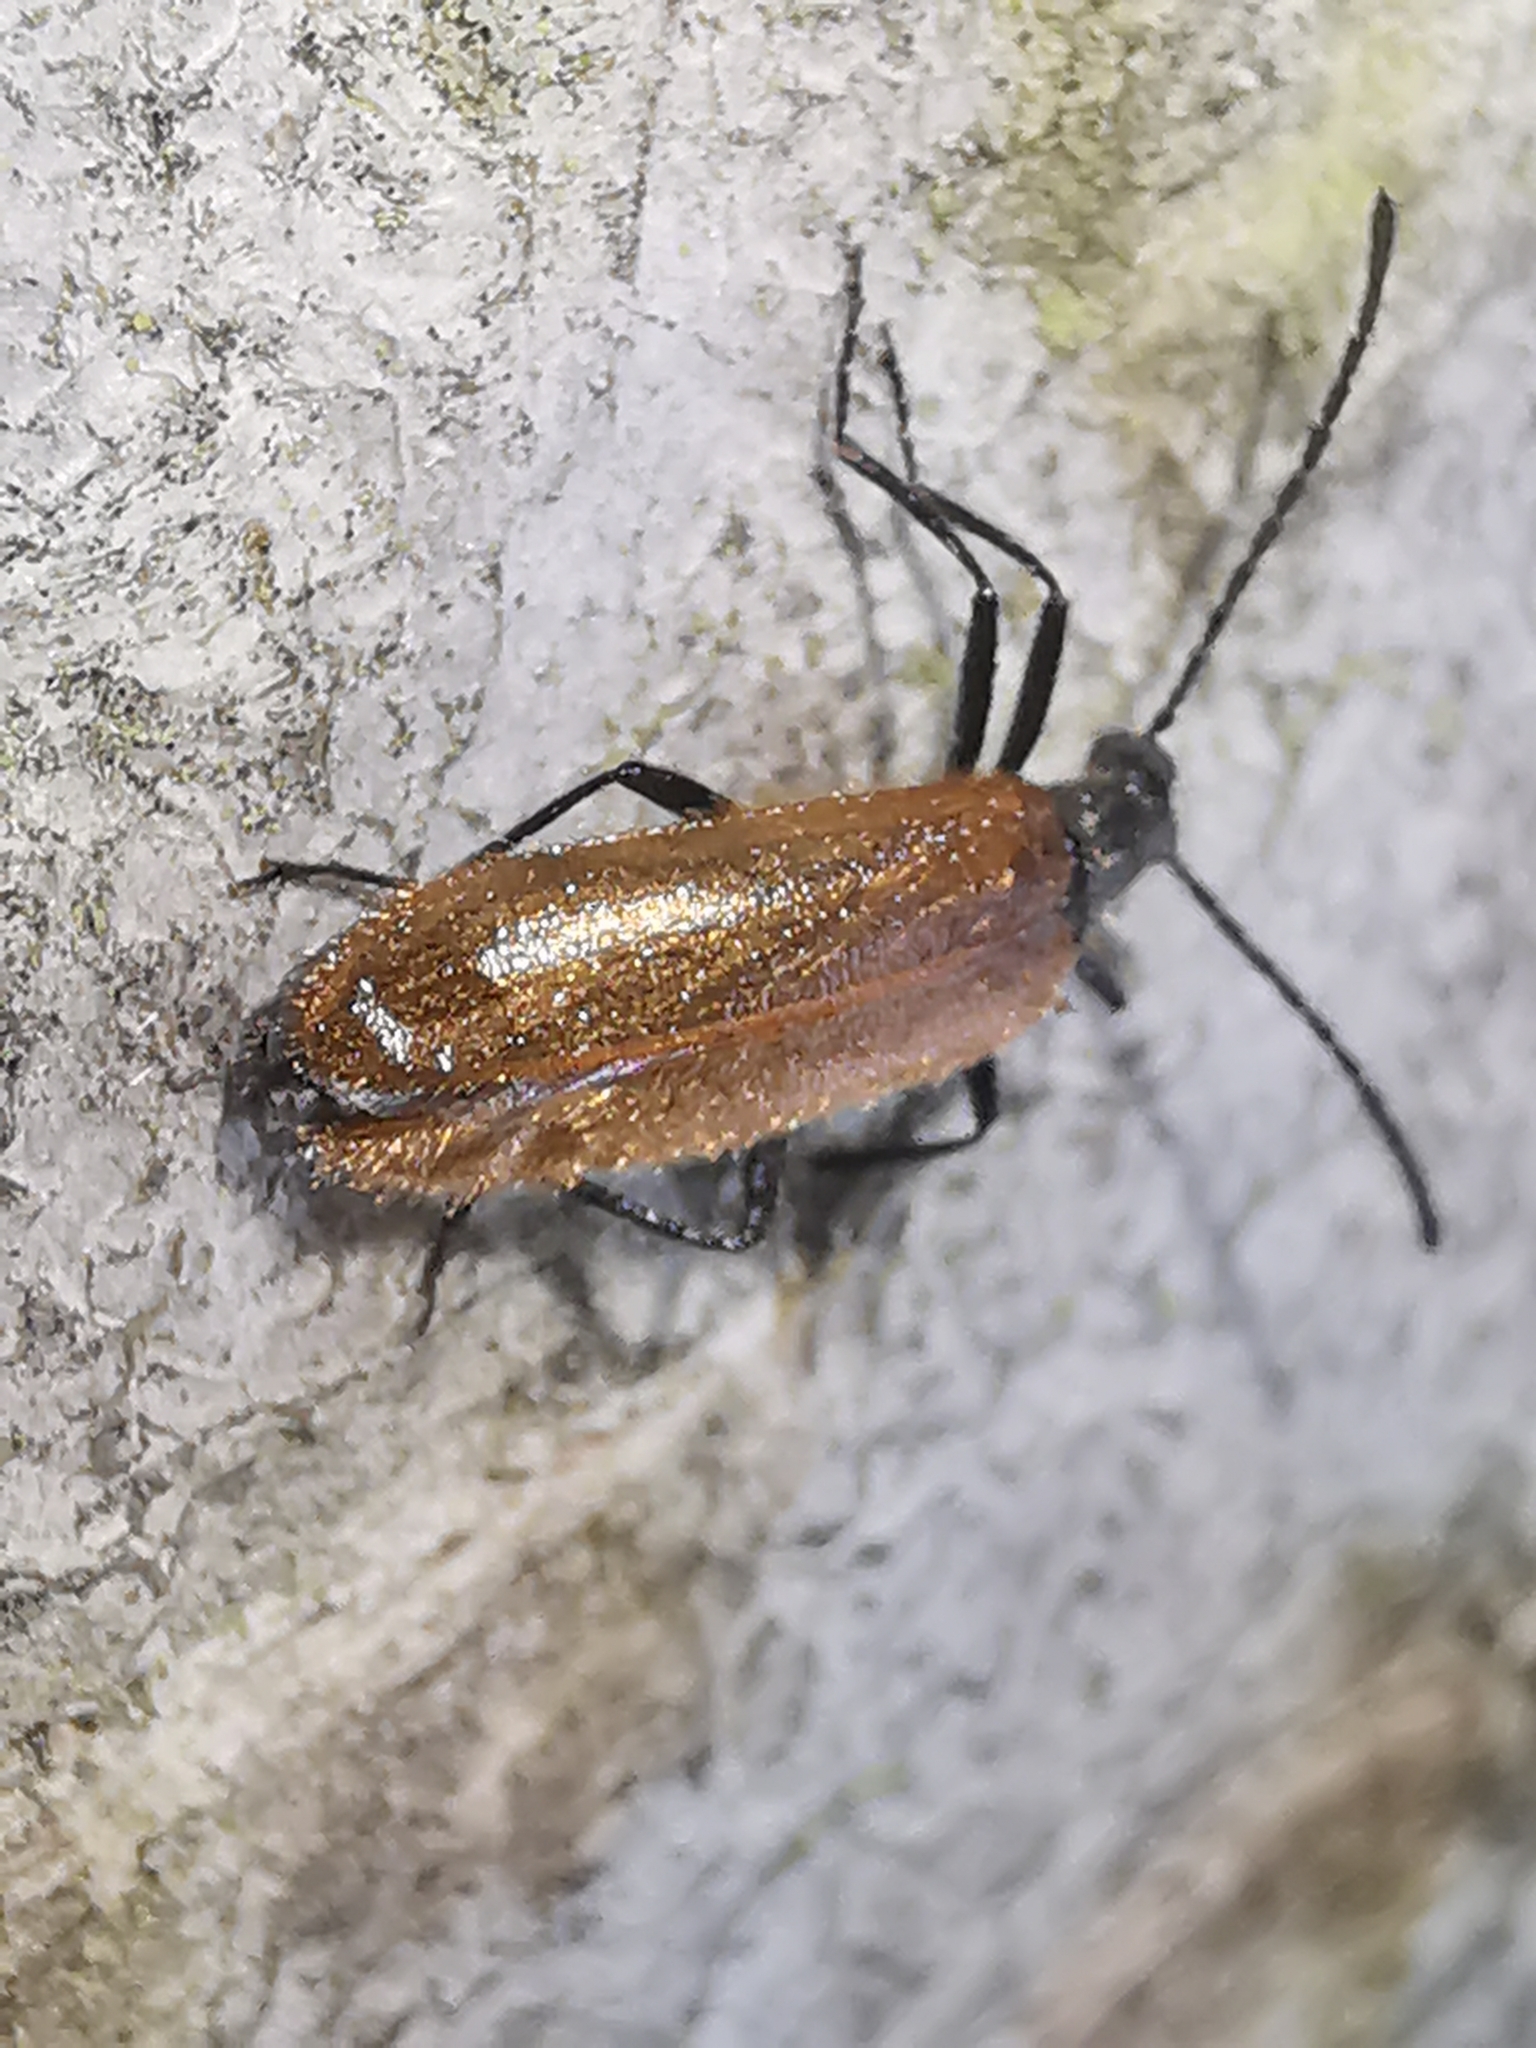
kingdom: Animalia
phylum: Arthropoda
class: Insecta
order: Coleoptera
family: Tenebrionidae
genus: Lagria
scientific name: Lagria hirta
